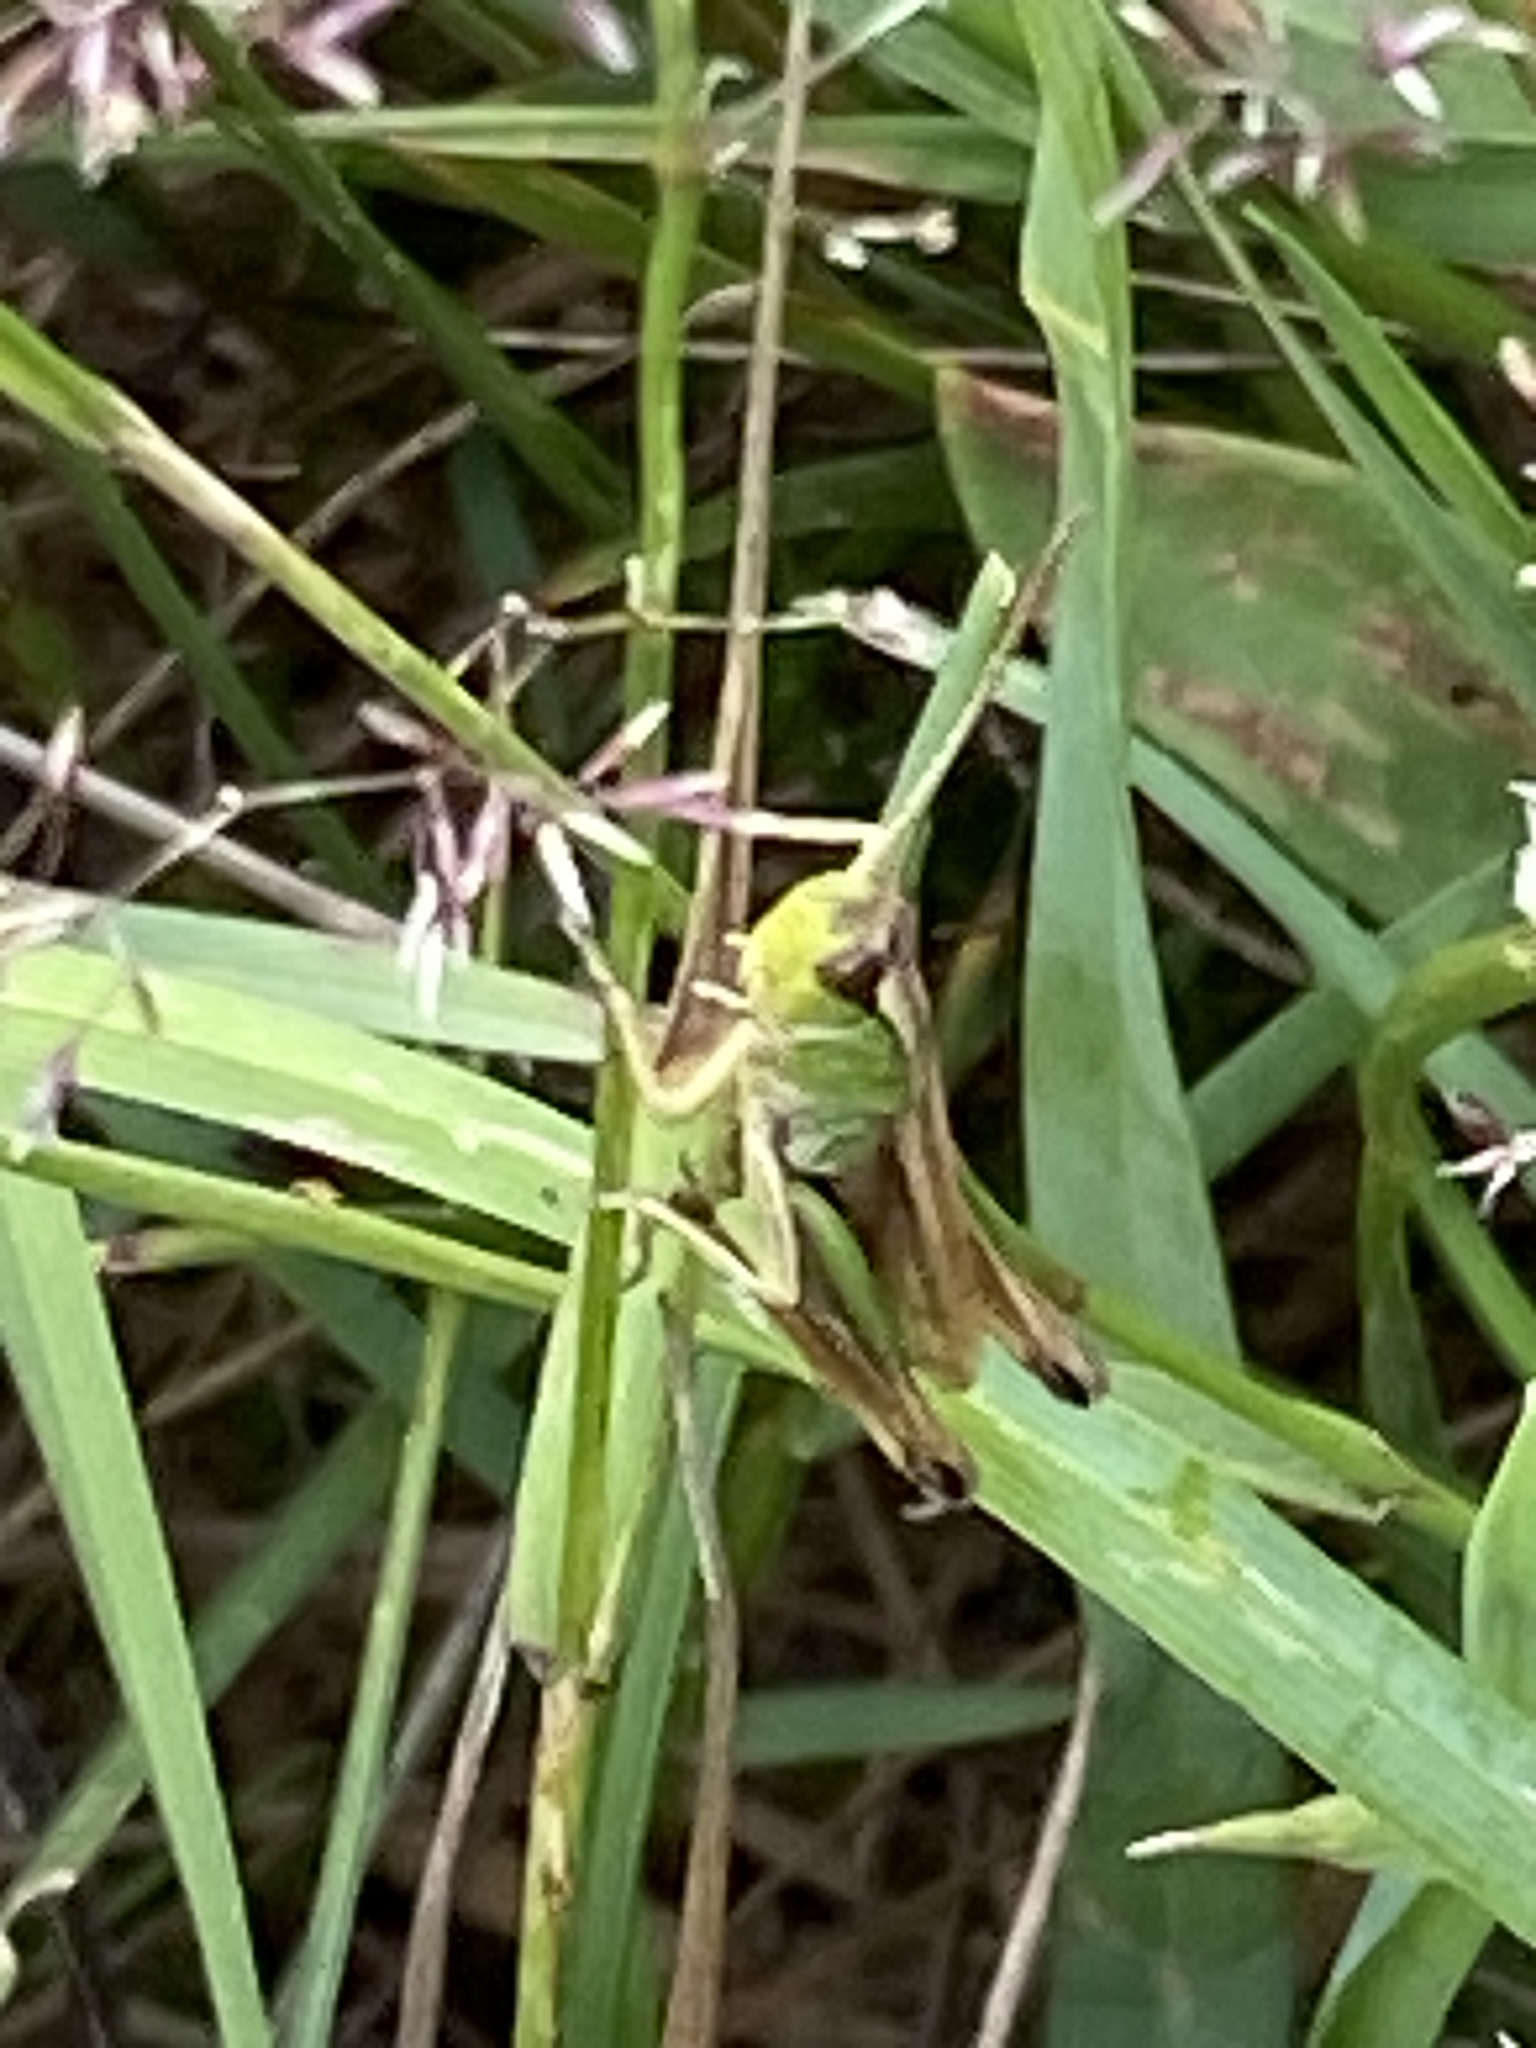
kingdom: Animalia
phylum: Arthropoda
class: Insecta
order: Orthoptera
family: Acrididae
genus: Pseudochorthippus
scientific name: Pseudochorthippus parallelus
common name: Meadow grasshopper
